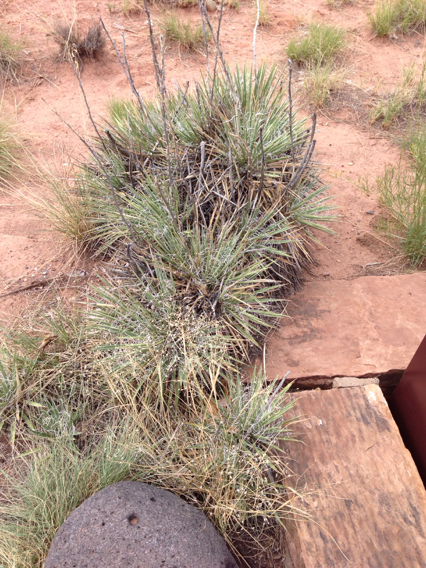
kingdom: Plantae
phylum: Tracheophyta
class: Liliopsida
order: Asparagales
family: Asparagaceae
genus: Yucca
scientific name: Yucca harrimaniae
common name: Harriman's yucca
